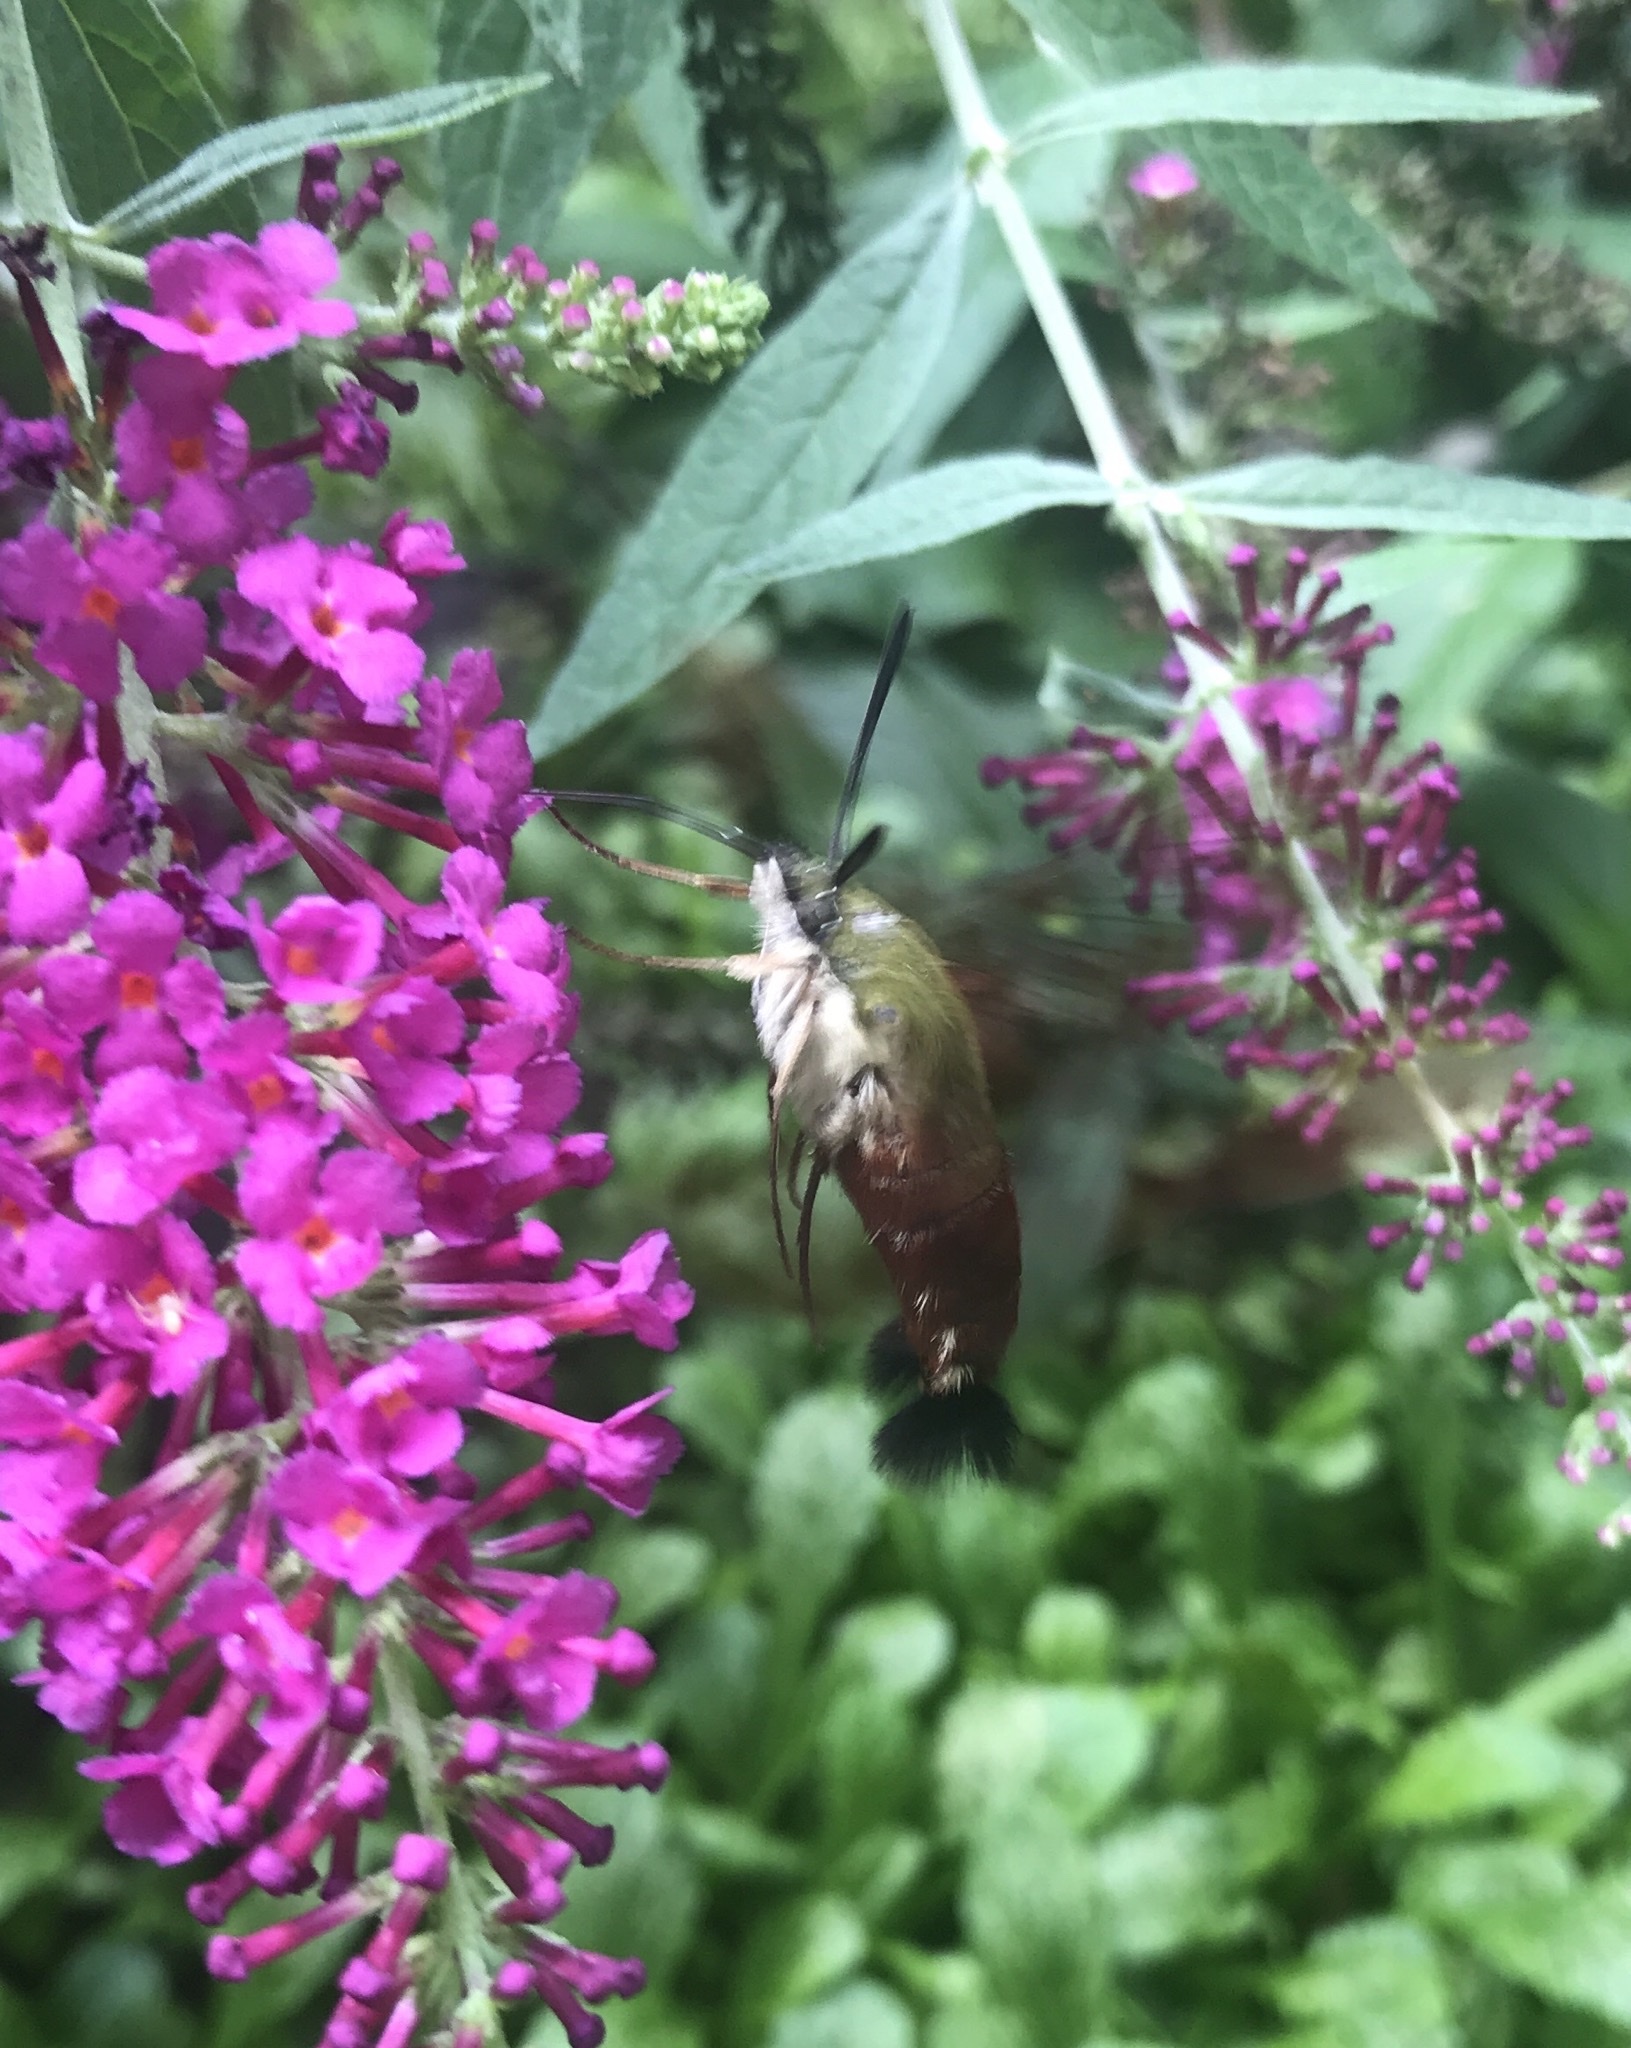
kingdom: Animalia
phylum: Arthropoda
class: Insecta
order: Lepidoptera
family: Sphingidae
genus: Hemaris
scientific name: Hemaris thysbe
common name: Common clear-wing
